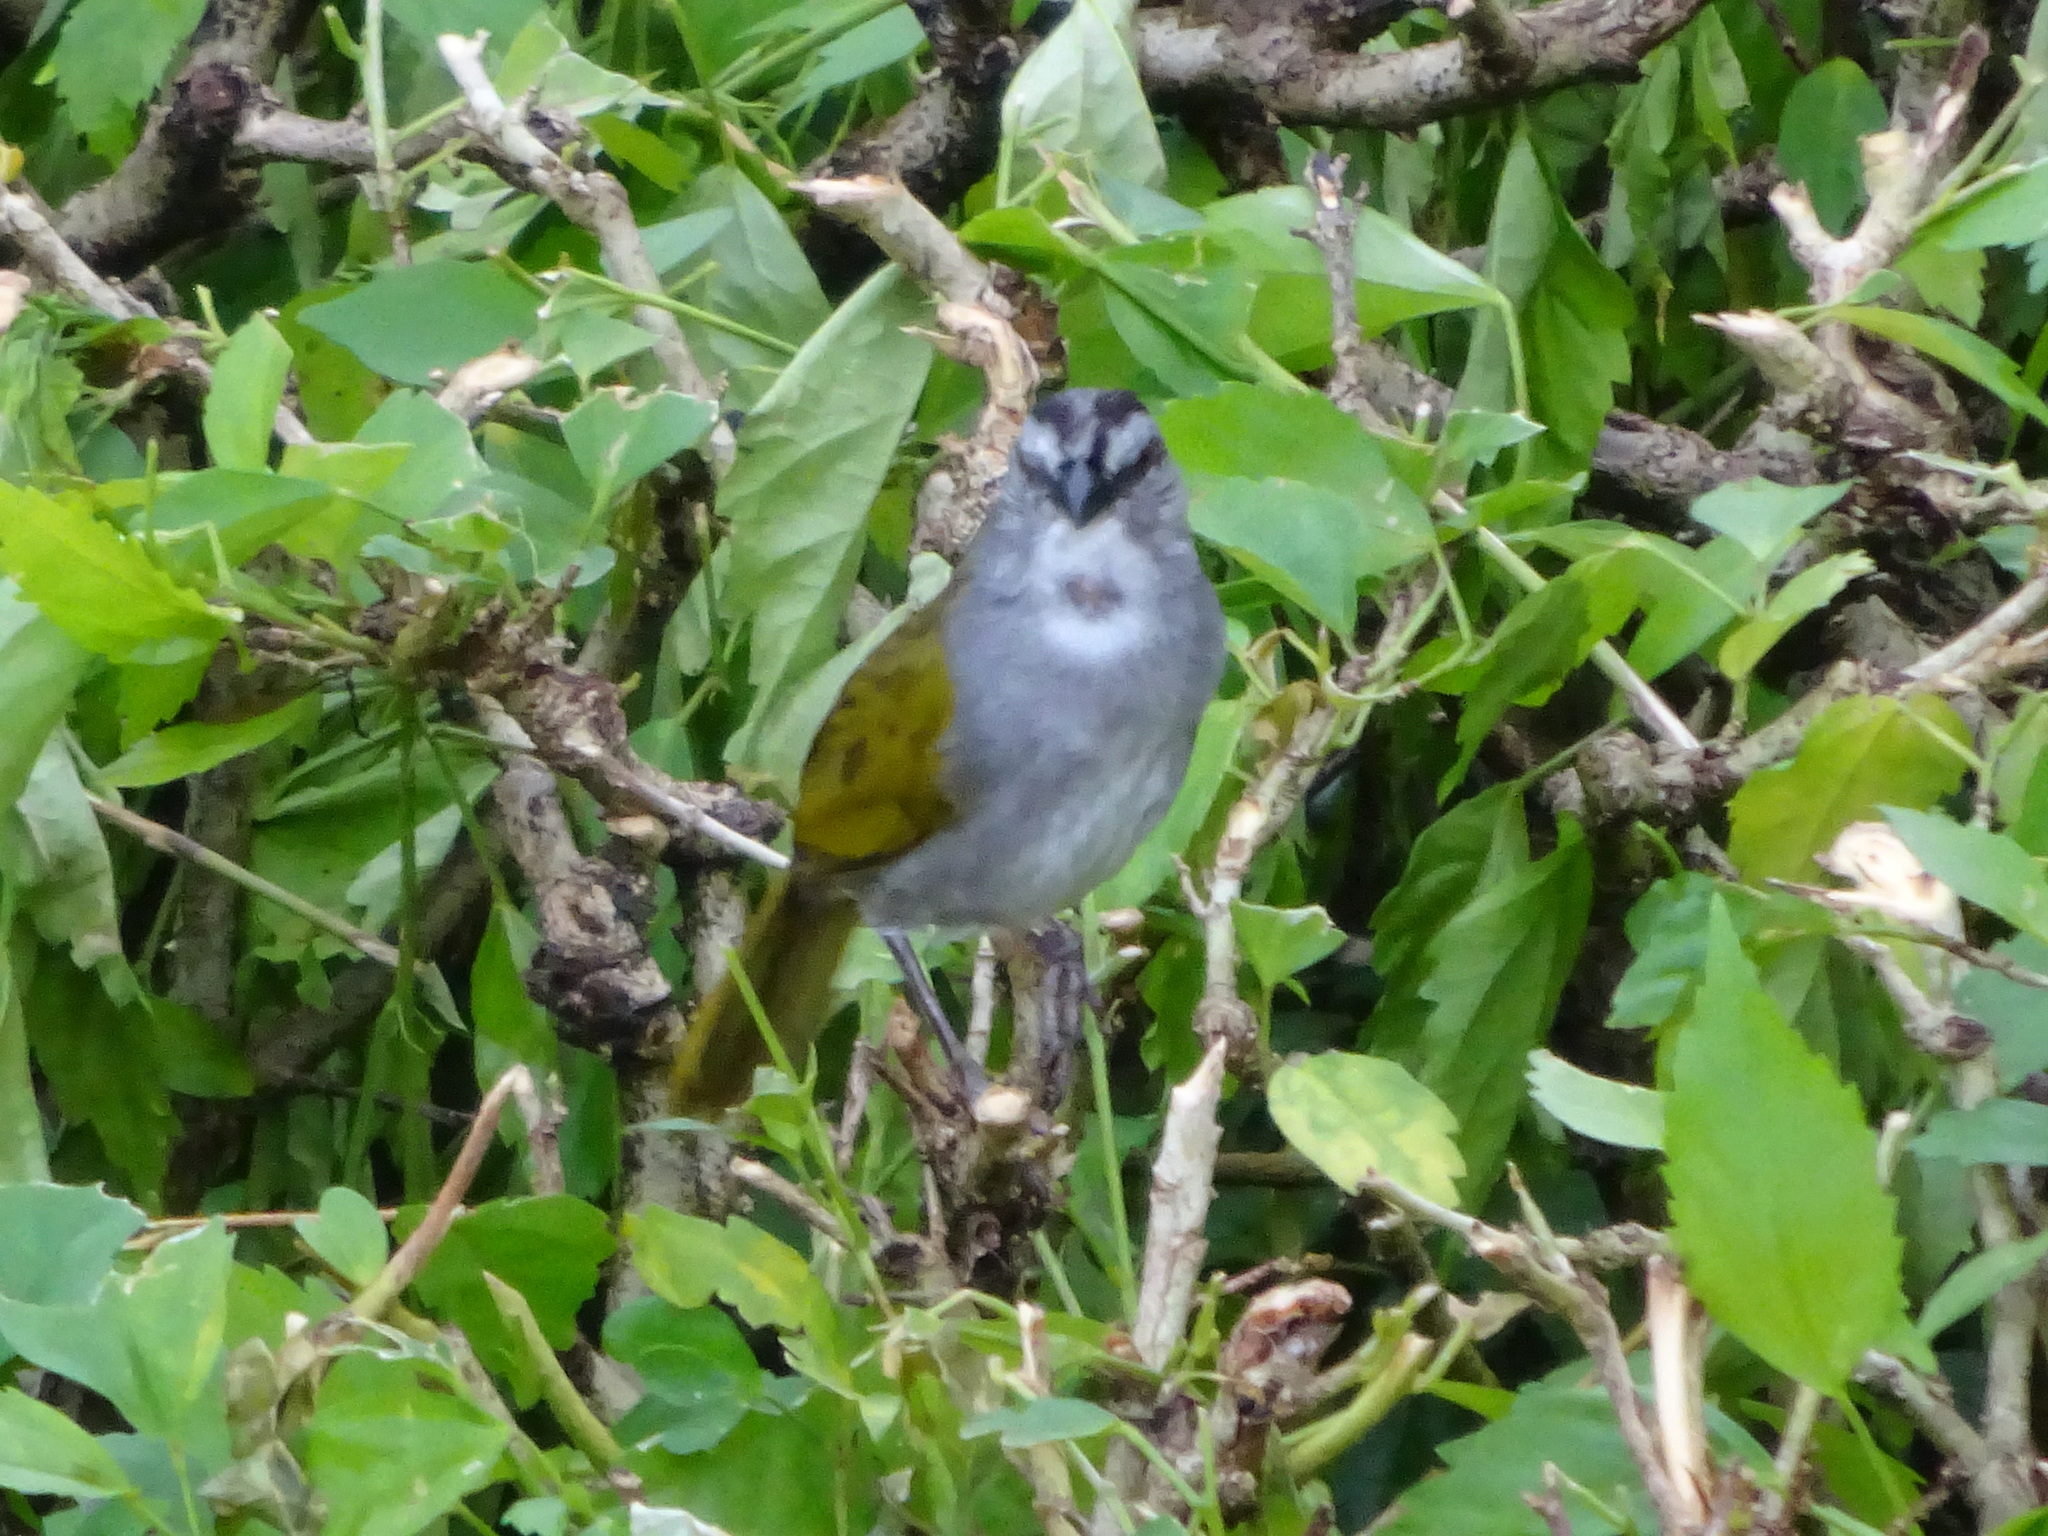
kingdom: Animalia
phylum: Chordata
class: Aves
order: Passeriformes
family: Passerellidae
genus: Arremonops
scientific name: Arremonops conirostris
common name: Black-striped sparrow
